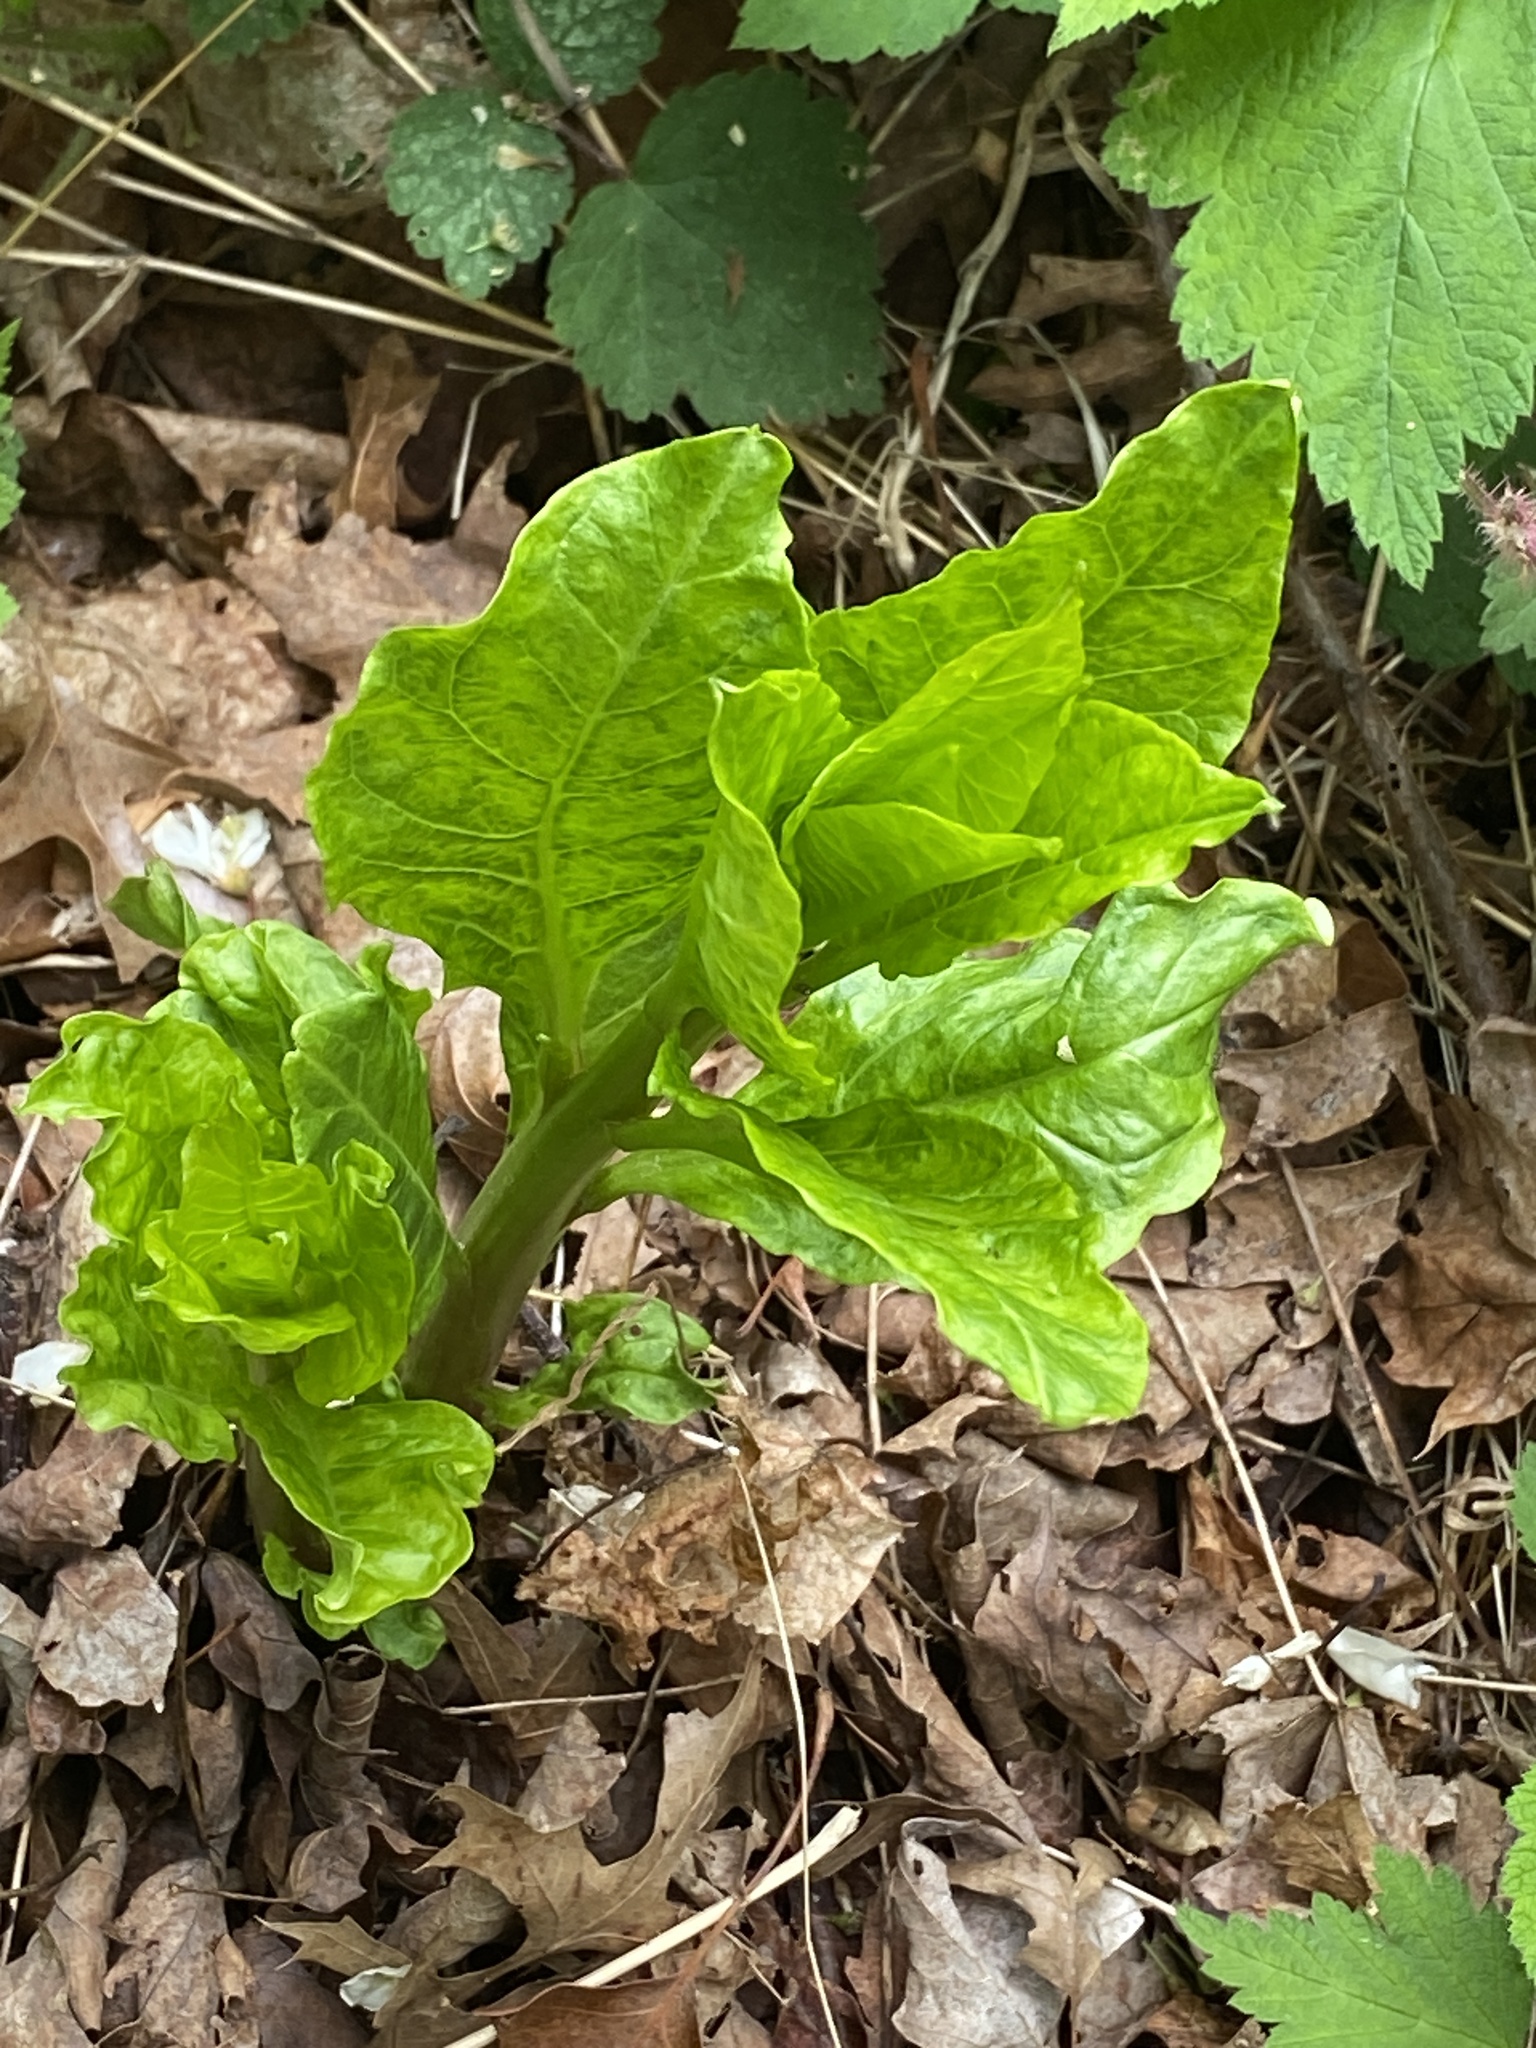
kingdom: Plantae
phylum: Tracheophyta
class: Magnoliopsida
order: Caryophyllales
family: Phytolaccaceae
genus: Phytolacca
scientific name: Phytolacca americana
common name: American pokeweed
